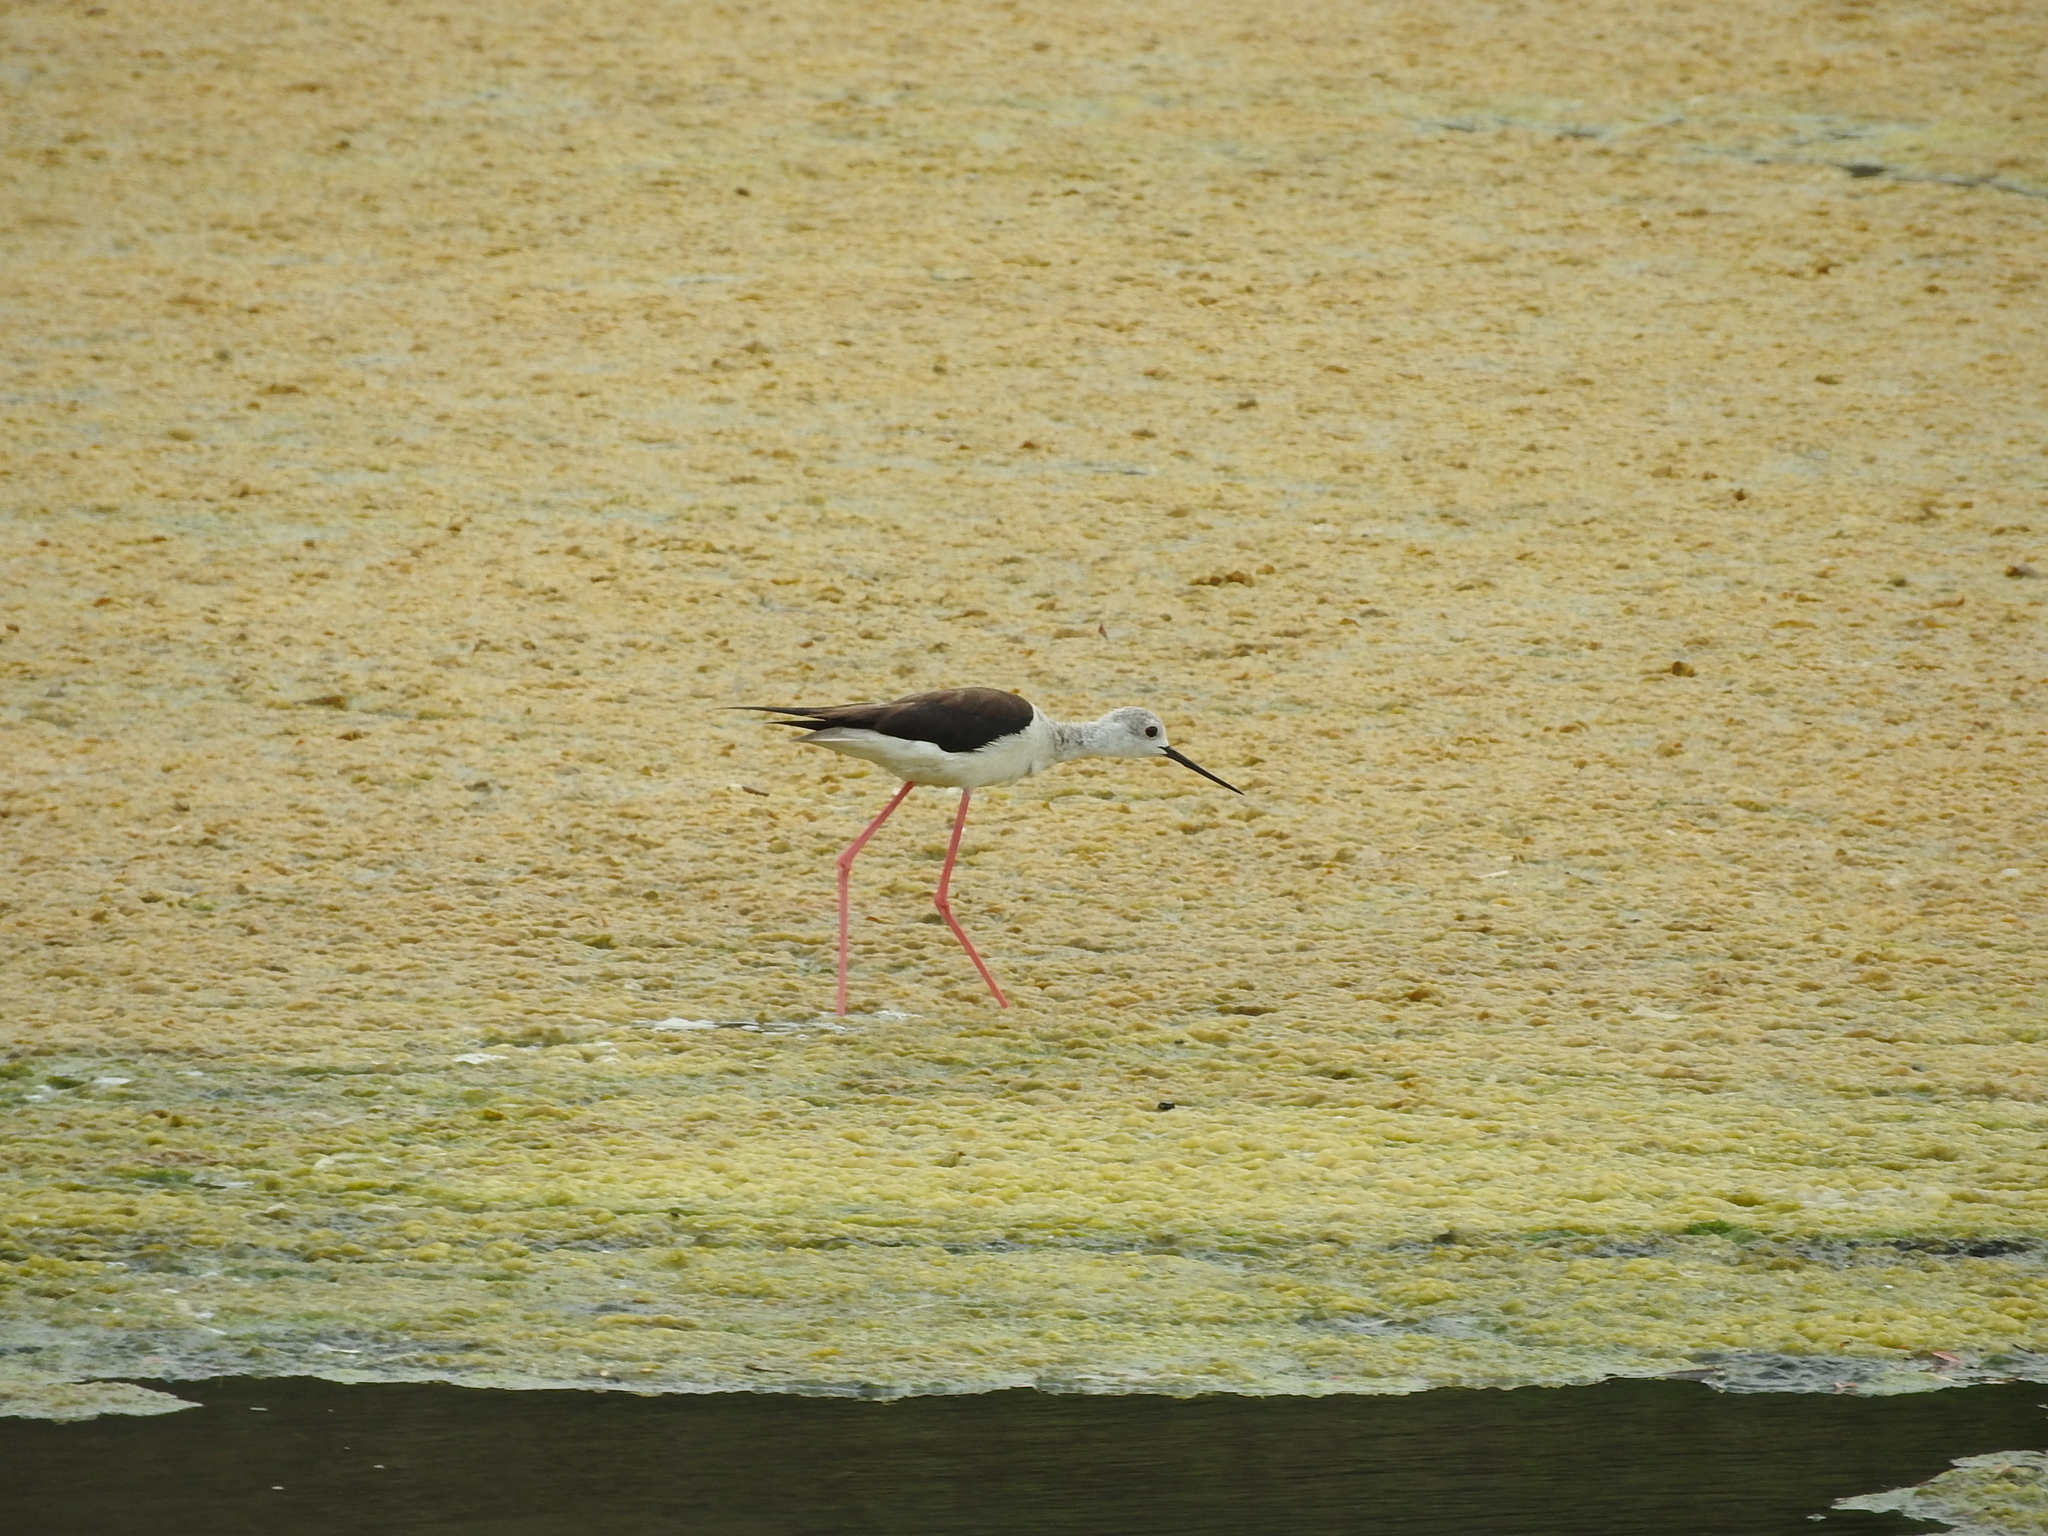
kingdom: Animalia
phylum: Chordata
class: Aves
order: Charadriiformes
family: Recurvirostridae
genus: Himantopus
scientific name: Himantopus himantopus
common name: Black-winged stilt
